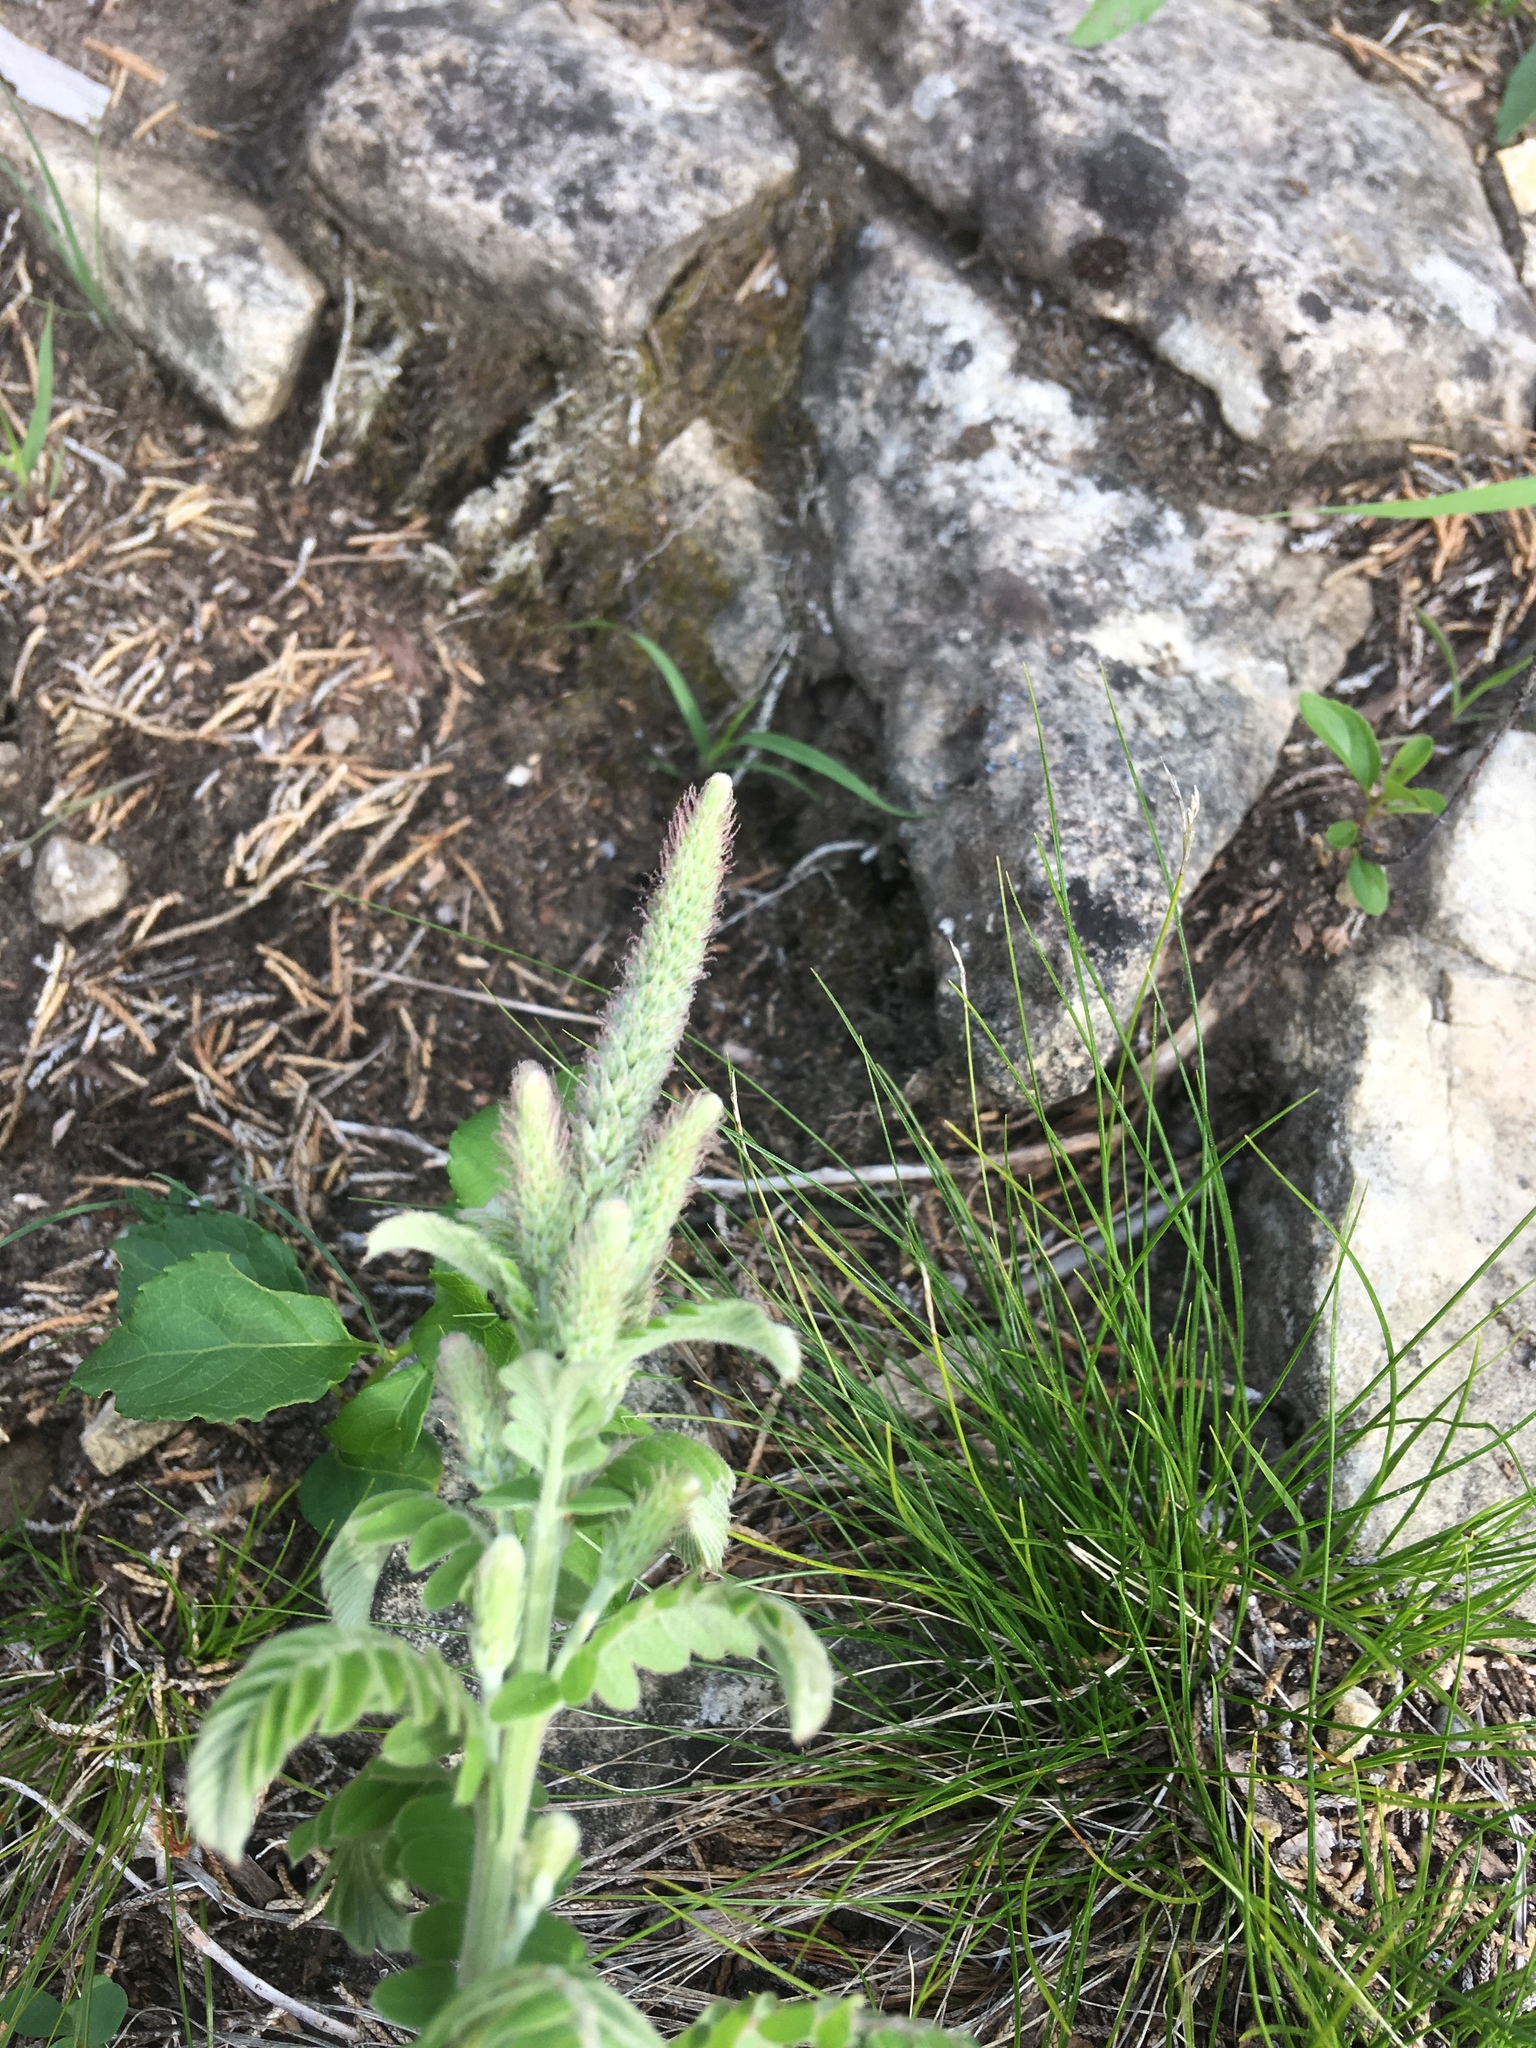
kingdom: Plantae
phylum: Tracheophyta
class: Magnoliopsida
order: Fabales
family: Fabaceae
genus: Amorpha
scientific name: Amorpha canescens
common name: Leadplant
